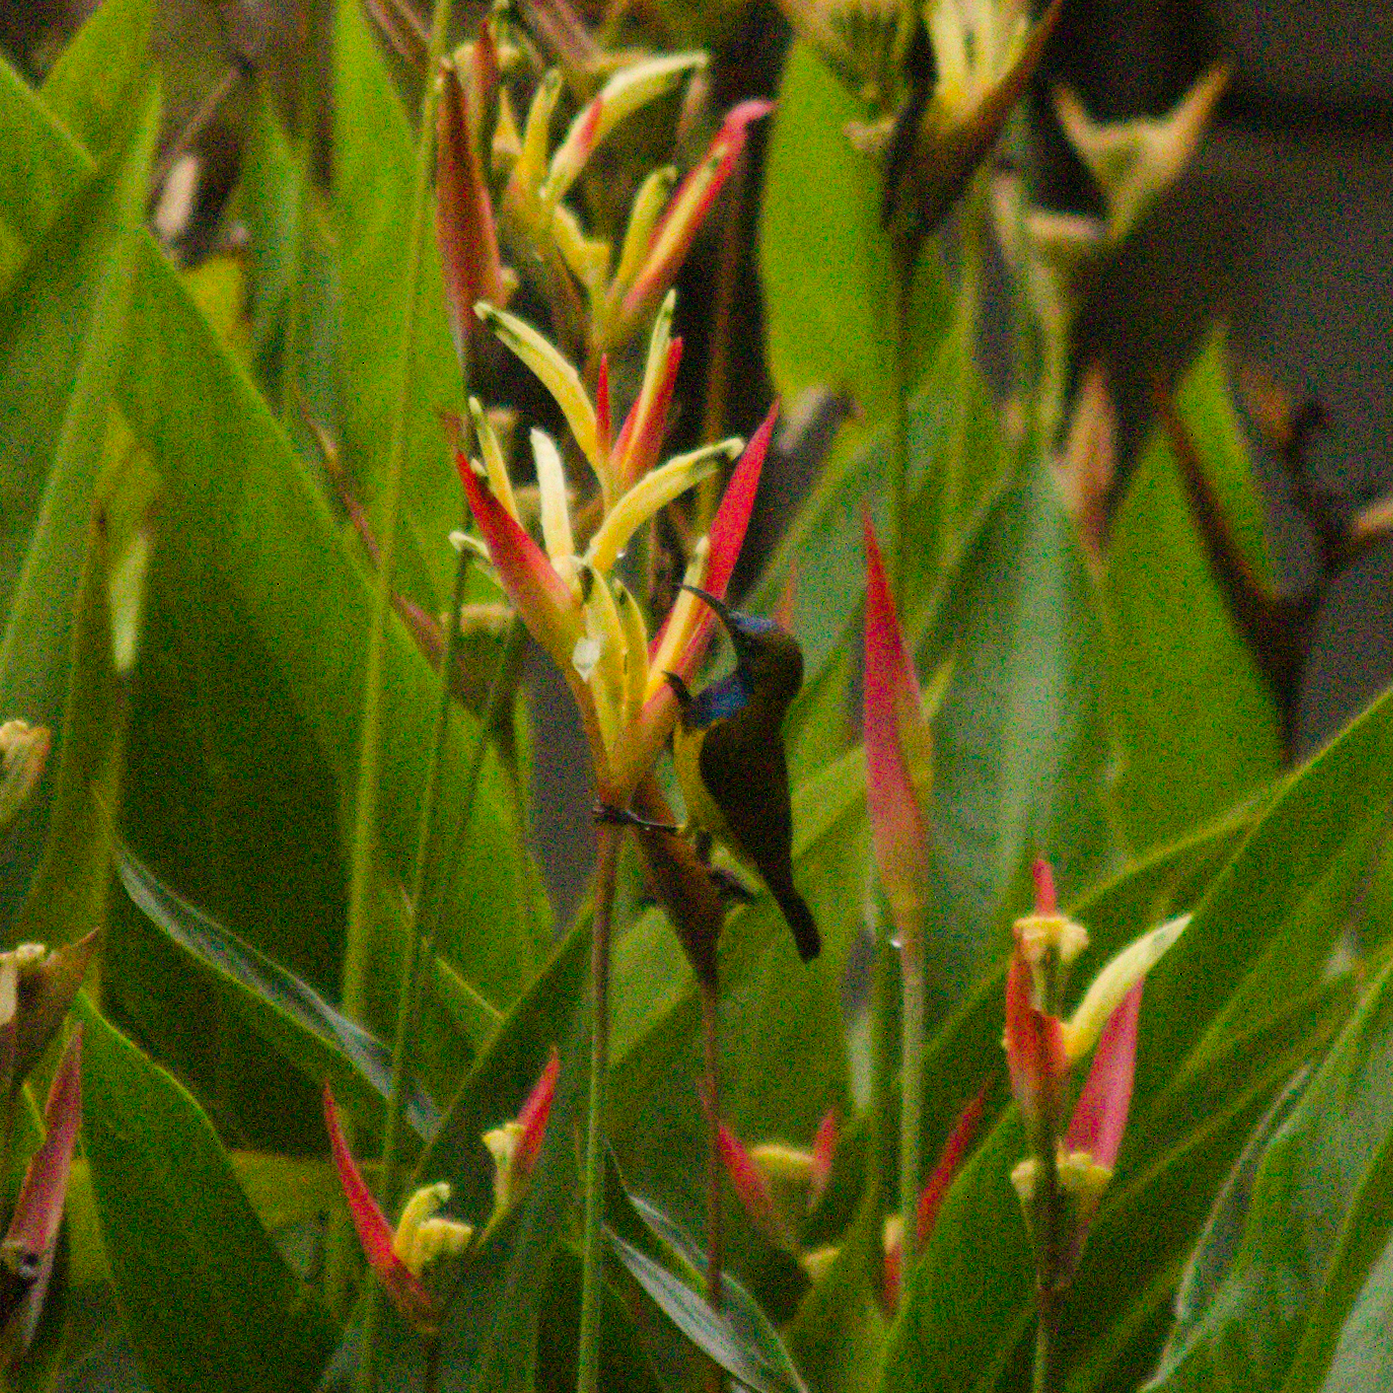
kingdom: Animalia
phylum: Chordata
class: Aves
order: Passeriformes
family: Nectariniidae
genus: Cinnyris
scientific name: Cinnyris
